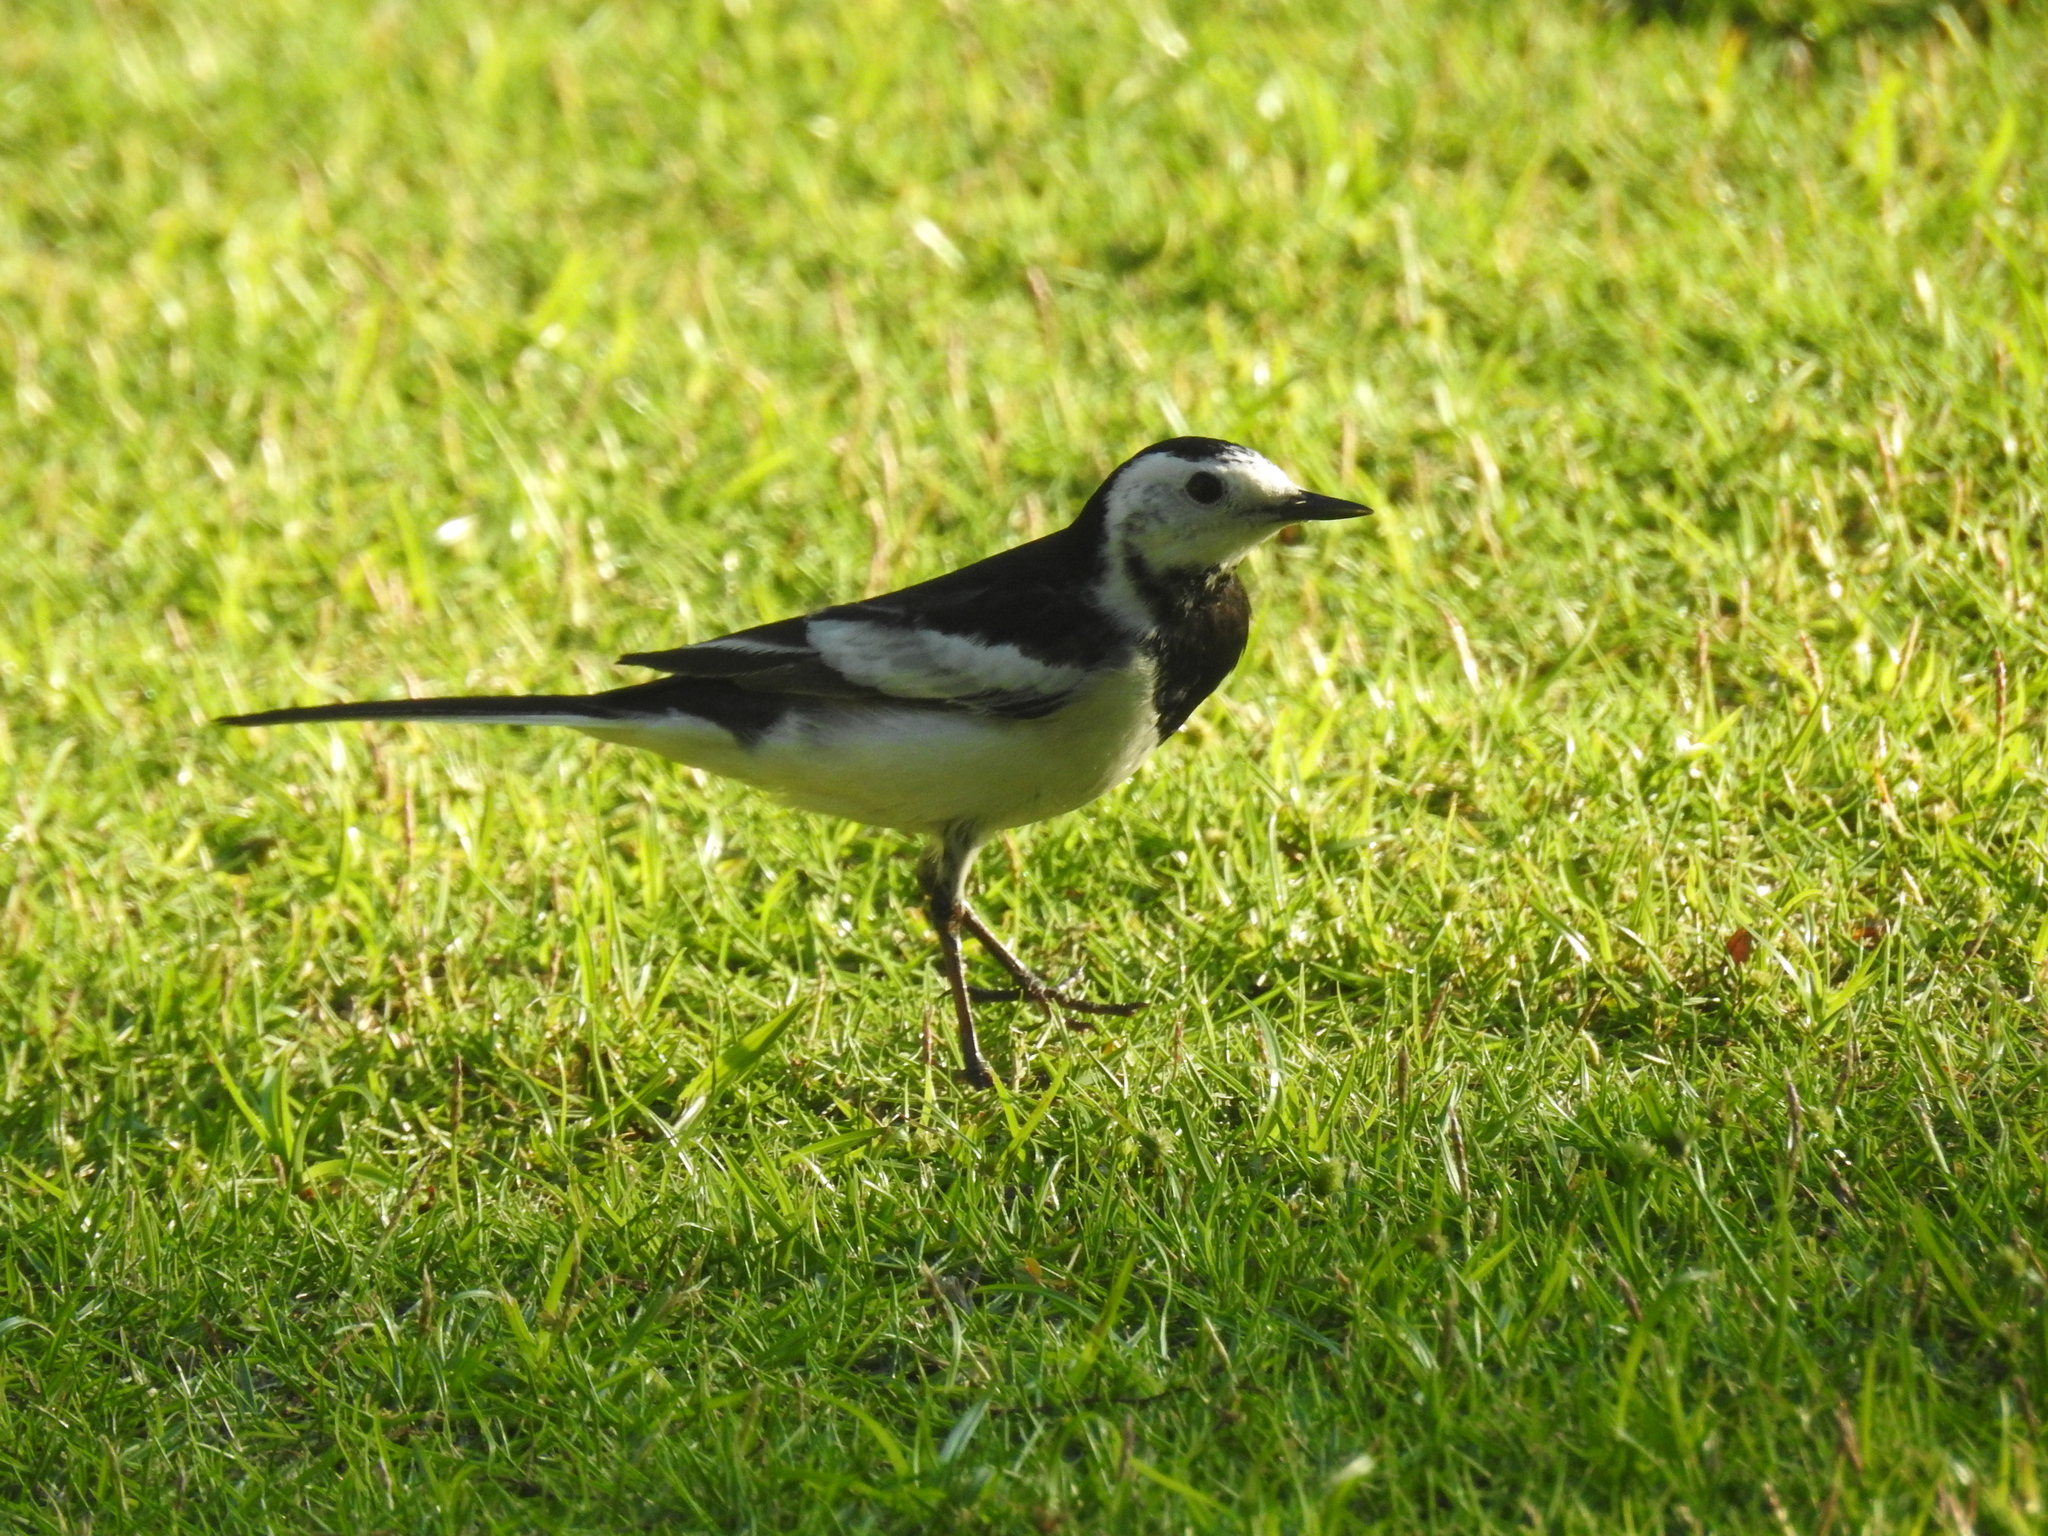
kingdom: Animalia
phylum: Chordata
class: Aves
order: Passeriformes
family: Motacillidae
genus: Motacilla
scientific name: Motacilla alba
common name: White wagtail
